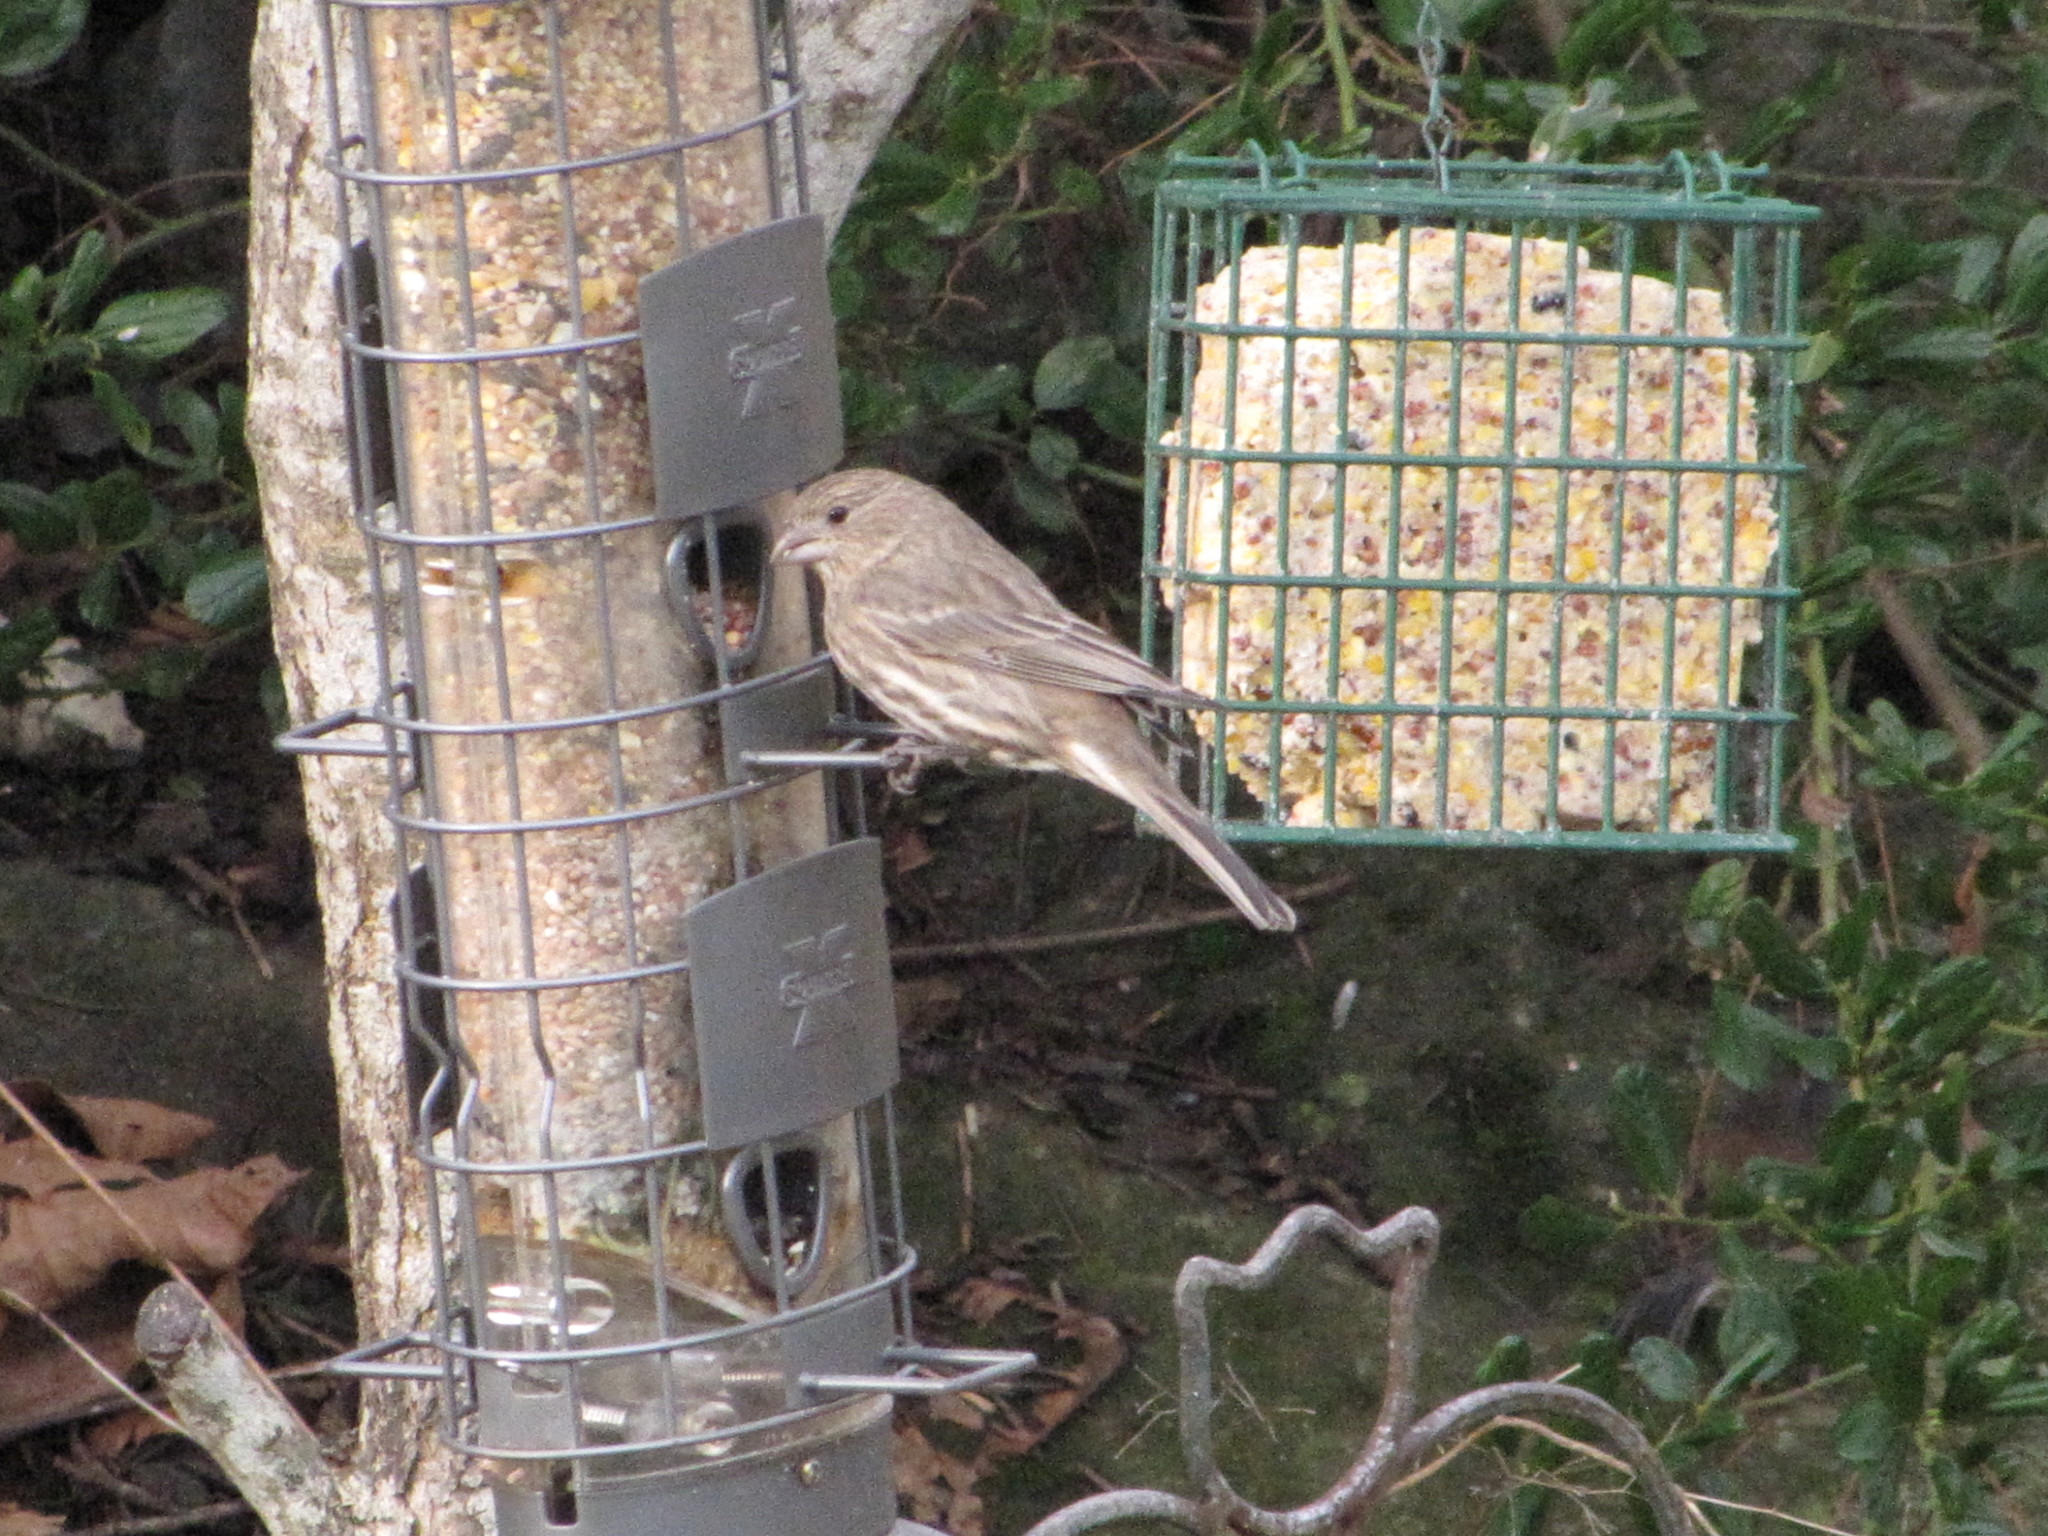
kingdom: Animalia
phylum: Chordata
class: Aves
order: Passeriformes
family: Fringillidae
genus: Haemorhous
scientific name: Haemorhous mexicanus
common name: House finch
